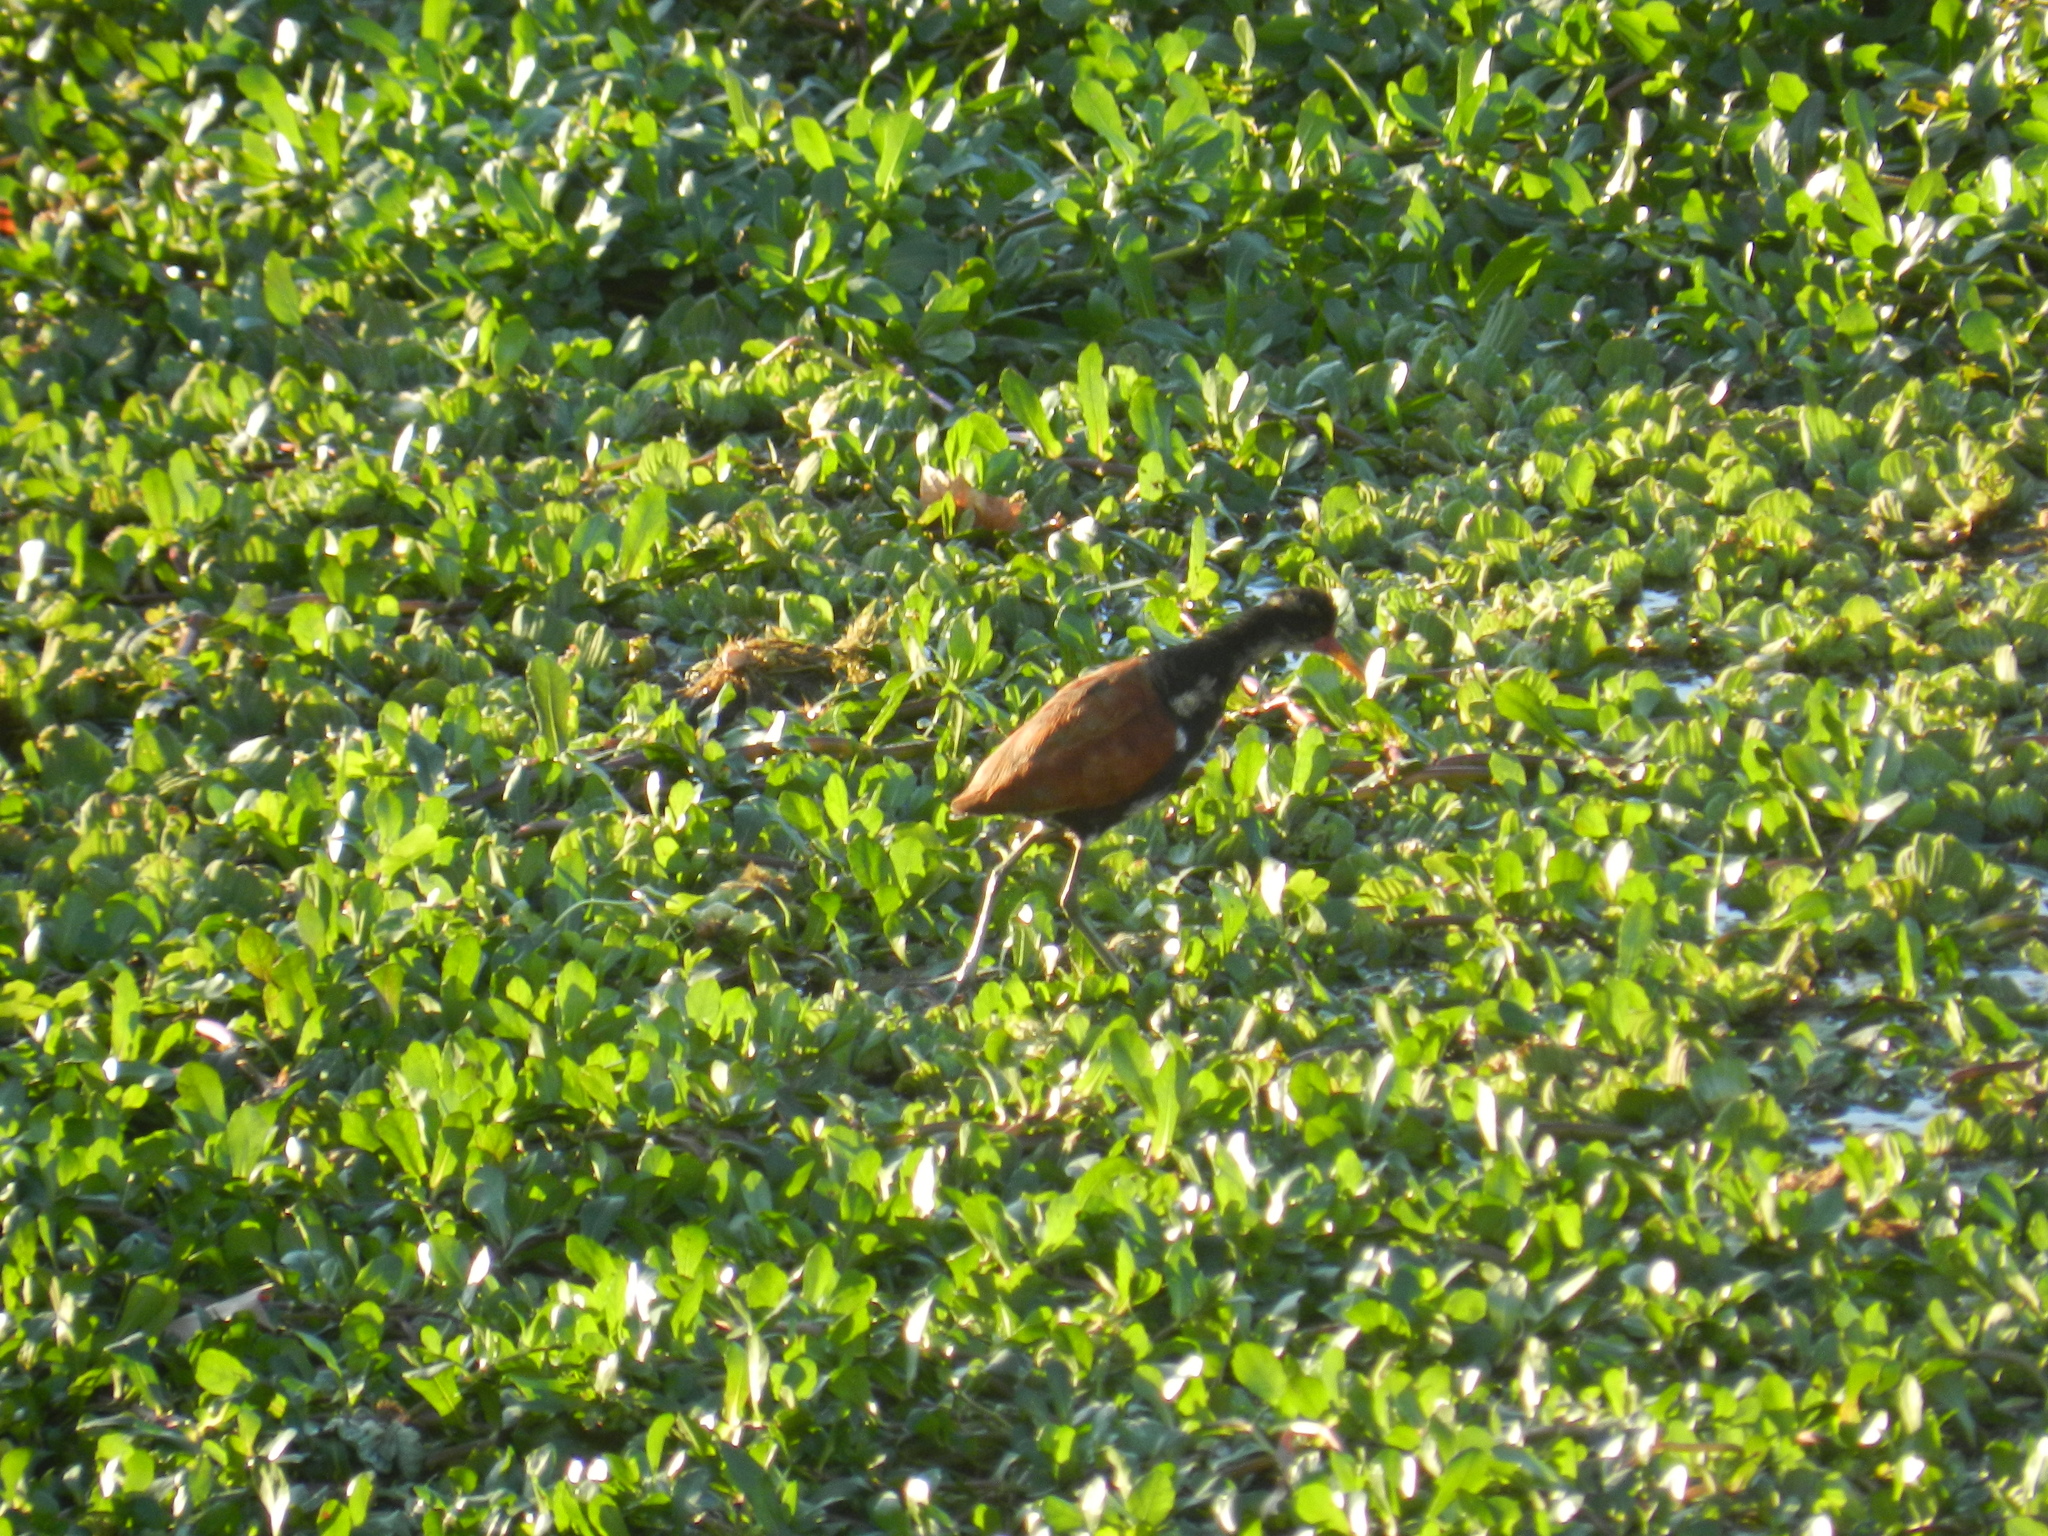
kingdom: Animalia
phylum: Chordata
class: Aves
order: Charadriiformes
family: Jacanidae
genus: Jacana
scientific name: Jacana jacana
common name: Wattled jacana
